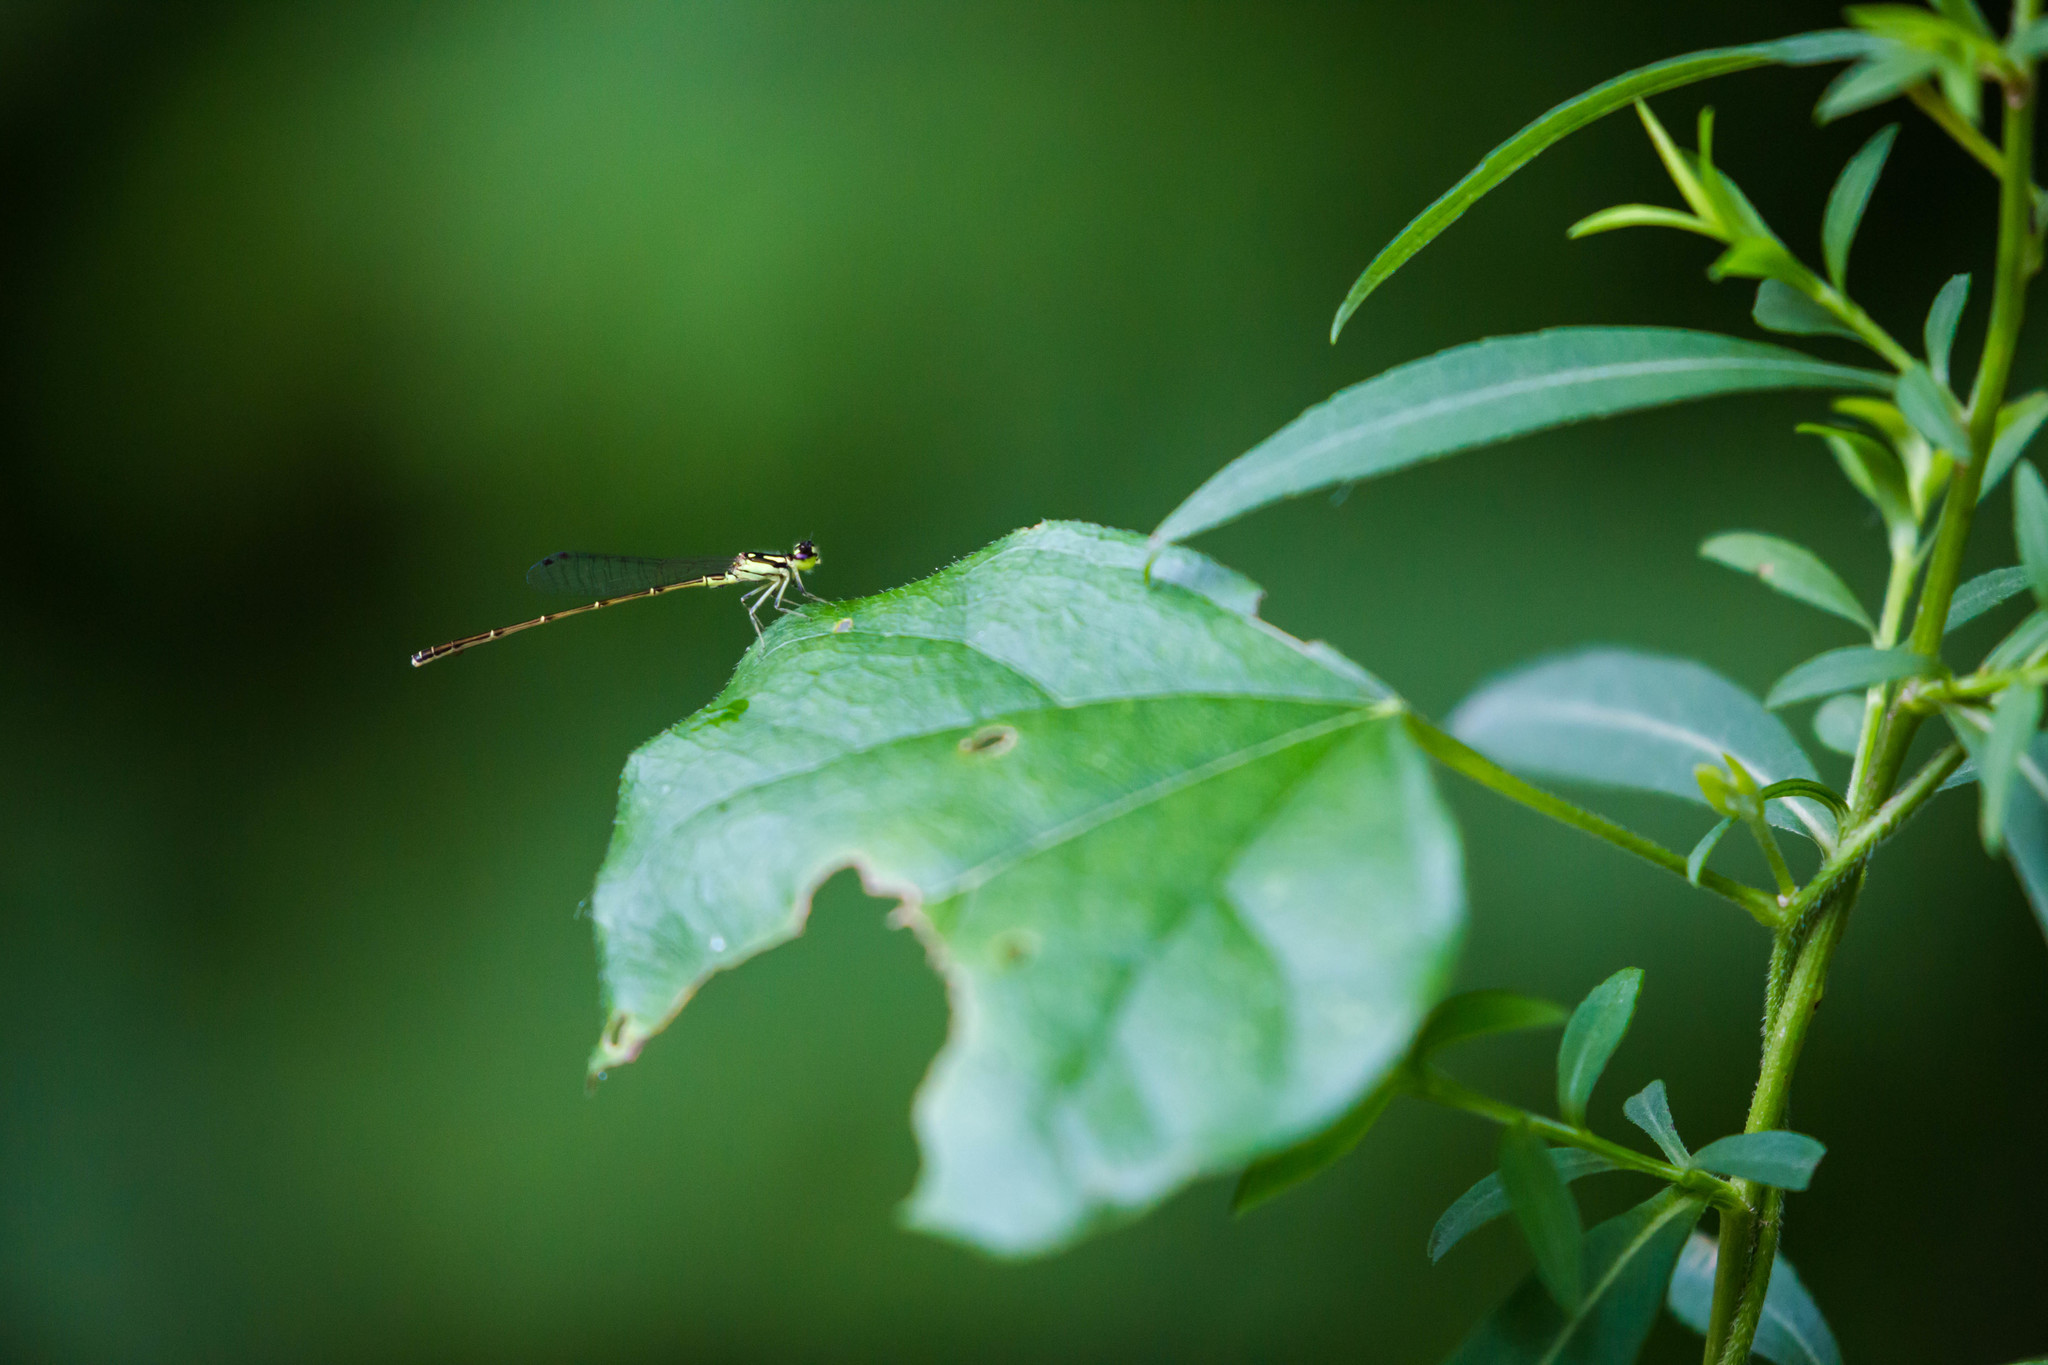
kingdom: Animalia
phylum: Arthropoda
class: Insecta
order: Odonata
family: Coenagrionidae
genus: Ischnura
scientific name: Ischnura posita
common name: Fragile forktail
